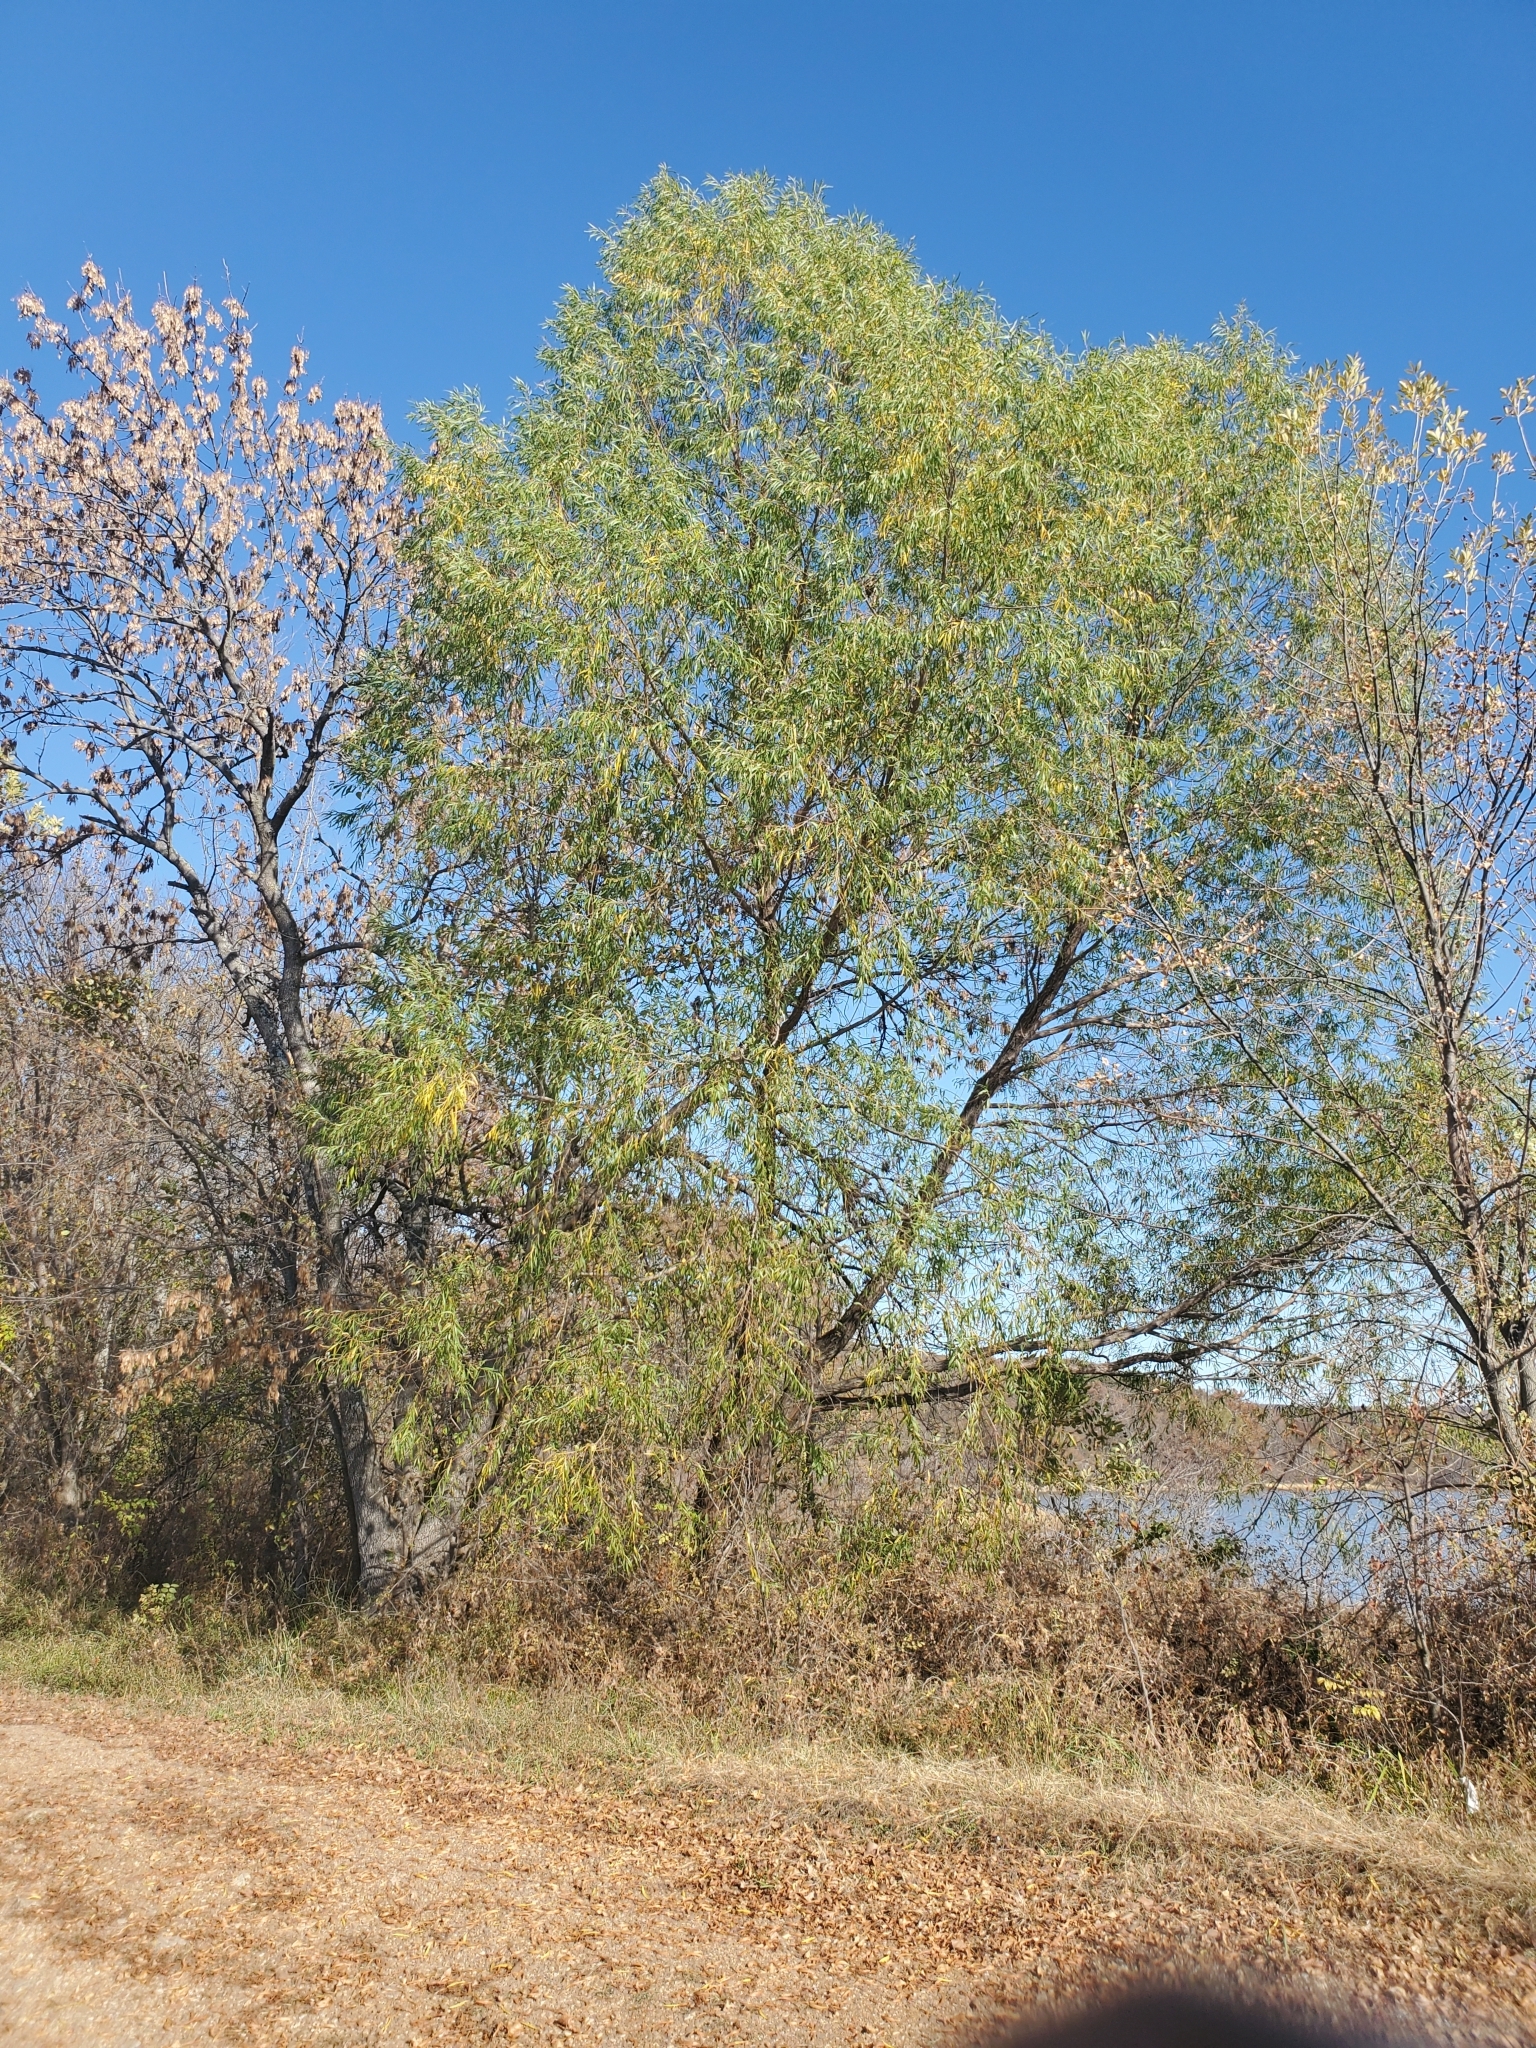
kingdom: Plantae
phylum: Tracheophyta
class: Magnoliopsida
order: Malpighiales
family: Salicaceae
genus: Salix
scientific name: Salix nigra
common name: Black willow
